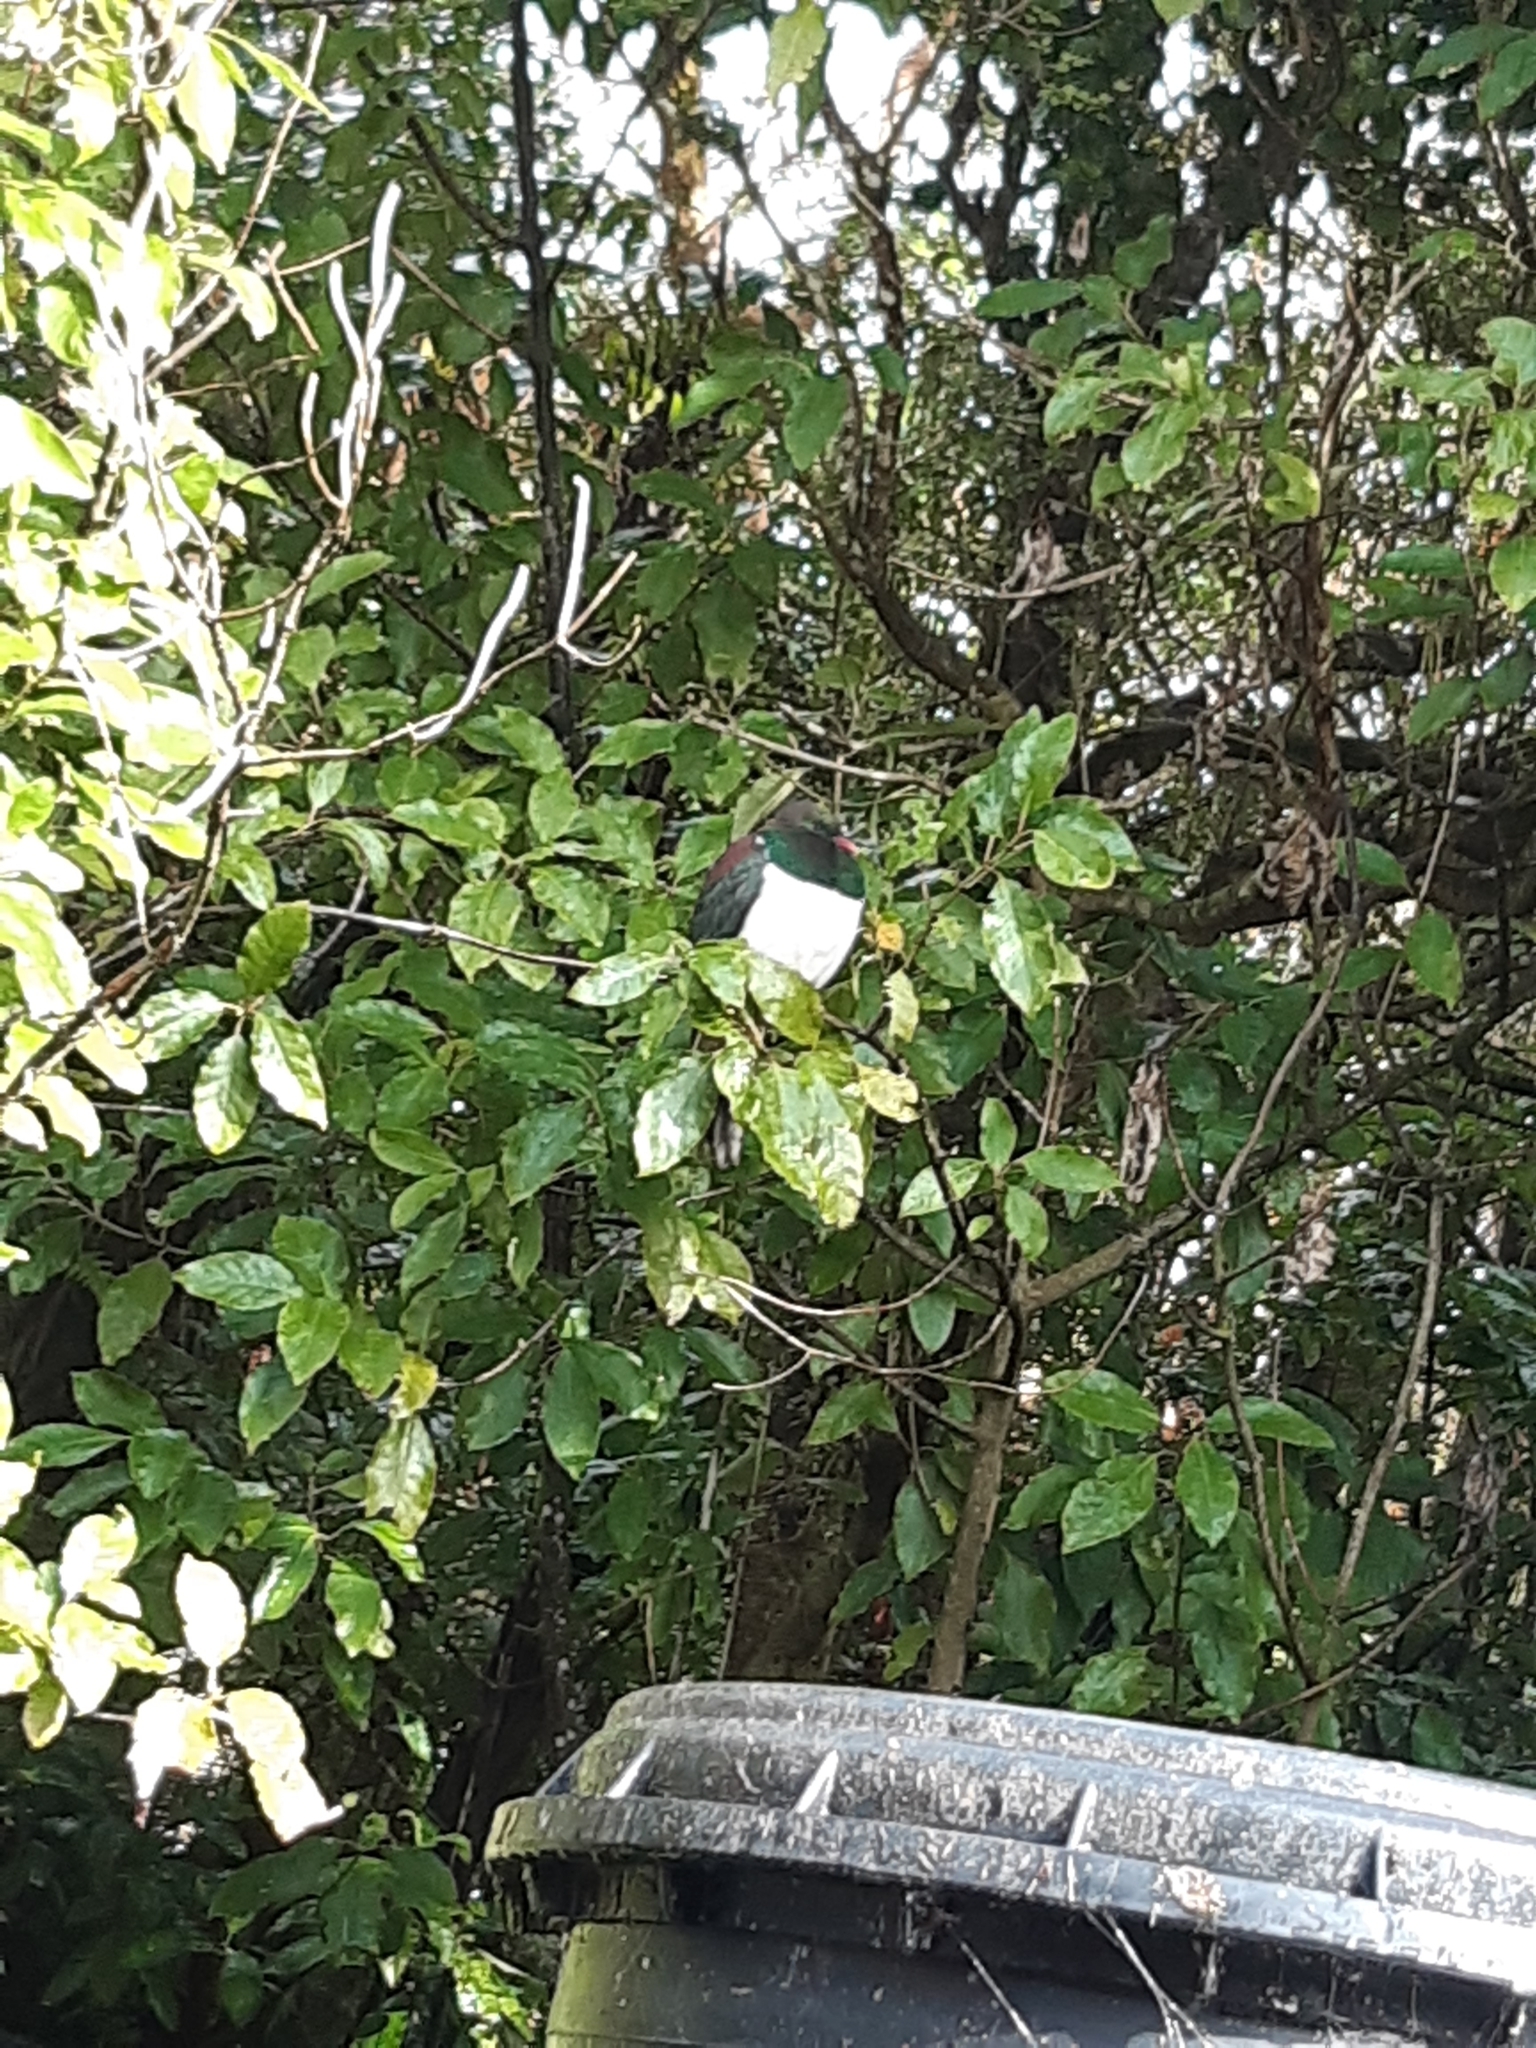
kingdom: Animalia
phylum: Chordata
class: Aves
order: Columbiformes
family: Columbidae
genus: Hemiphaga
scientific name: Hemiphaga novaeseelandiae
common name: New zealand pigeon
